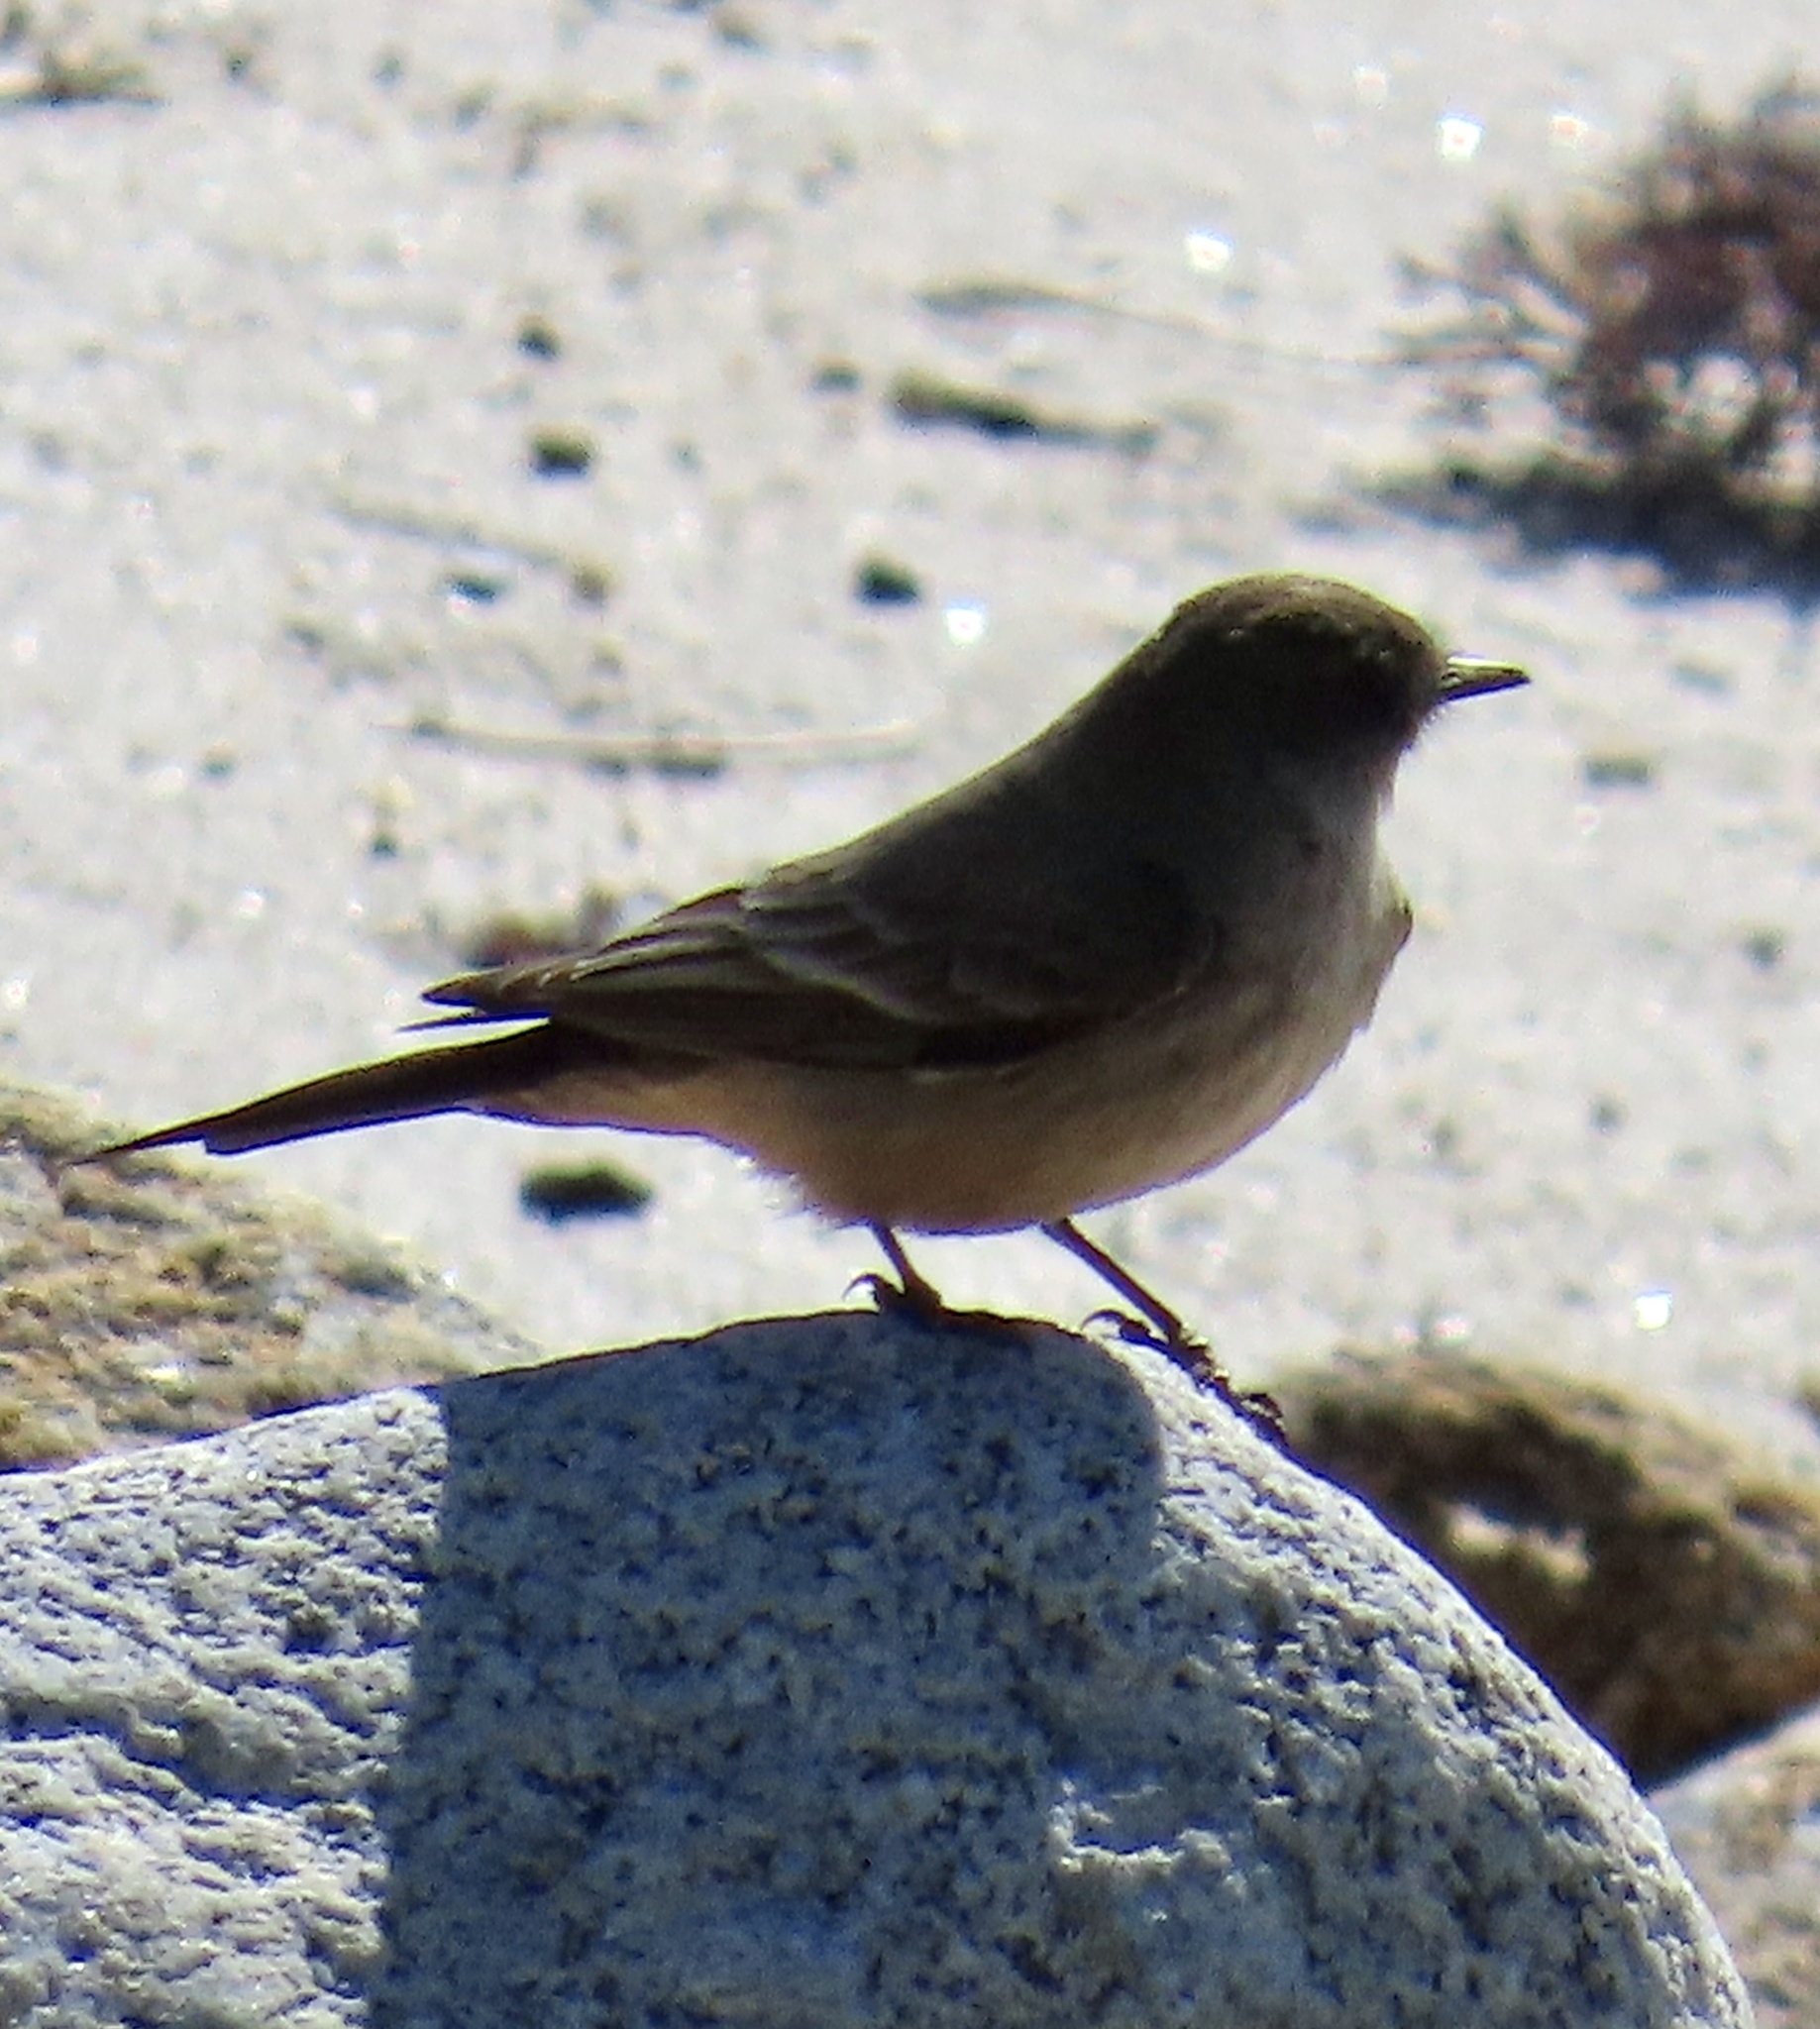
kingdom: Animalia
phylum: Chordata
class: Aves
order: Passeriformes
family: Tyrannidae
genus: Sayornis
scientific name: Sayornis saya
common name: Say's phoebe
